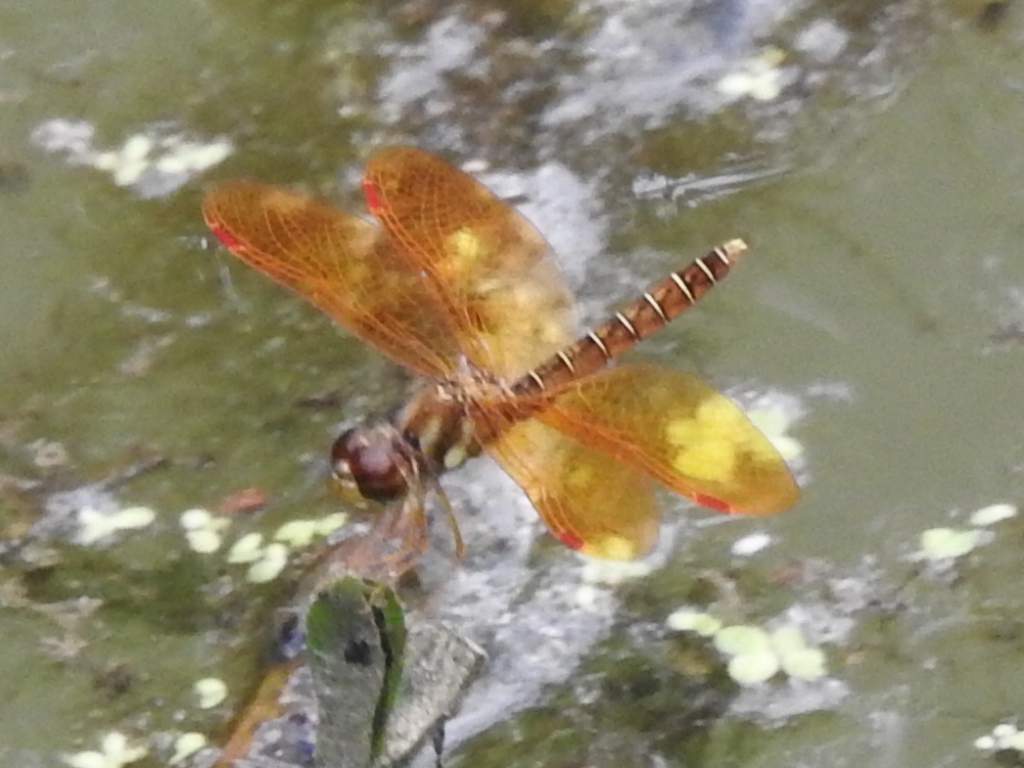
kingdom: Animalia
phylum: Arthropoda
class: Insecta
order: Odonata
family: Libellulidae
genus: Perithemis
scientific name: Perithemis tenera
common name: Eastern amberwing
